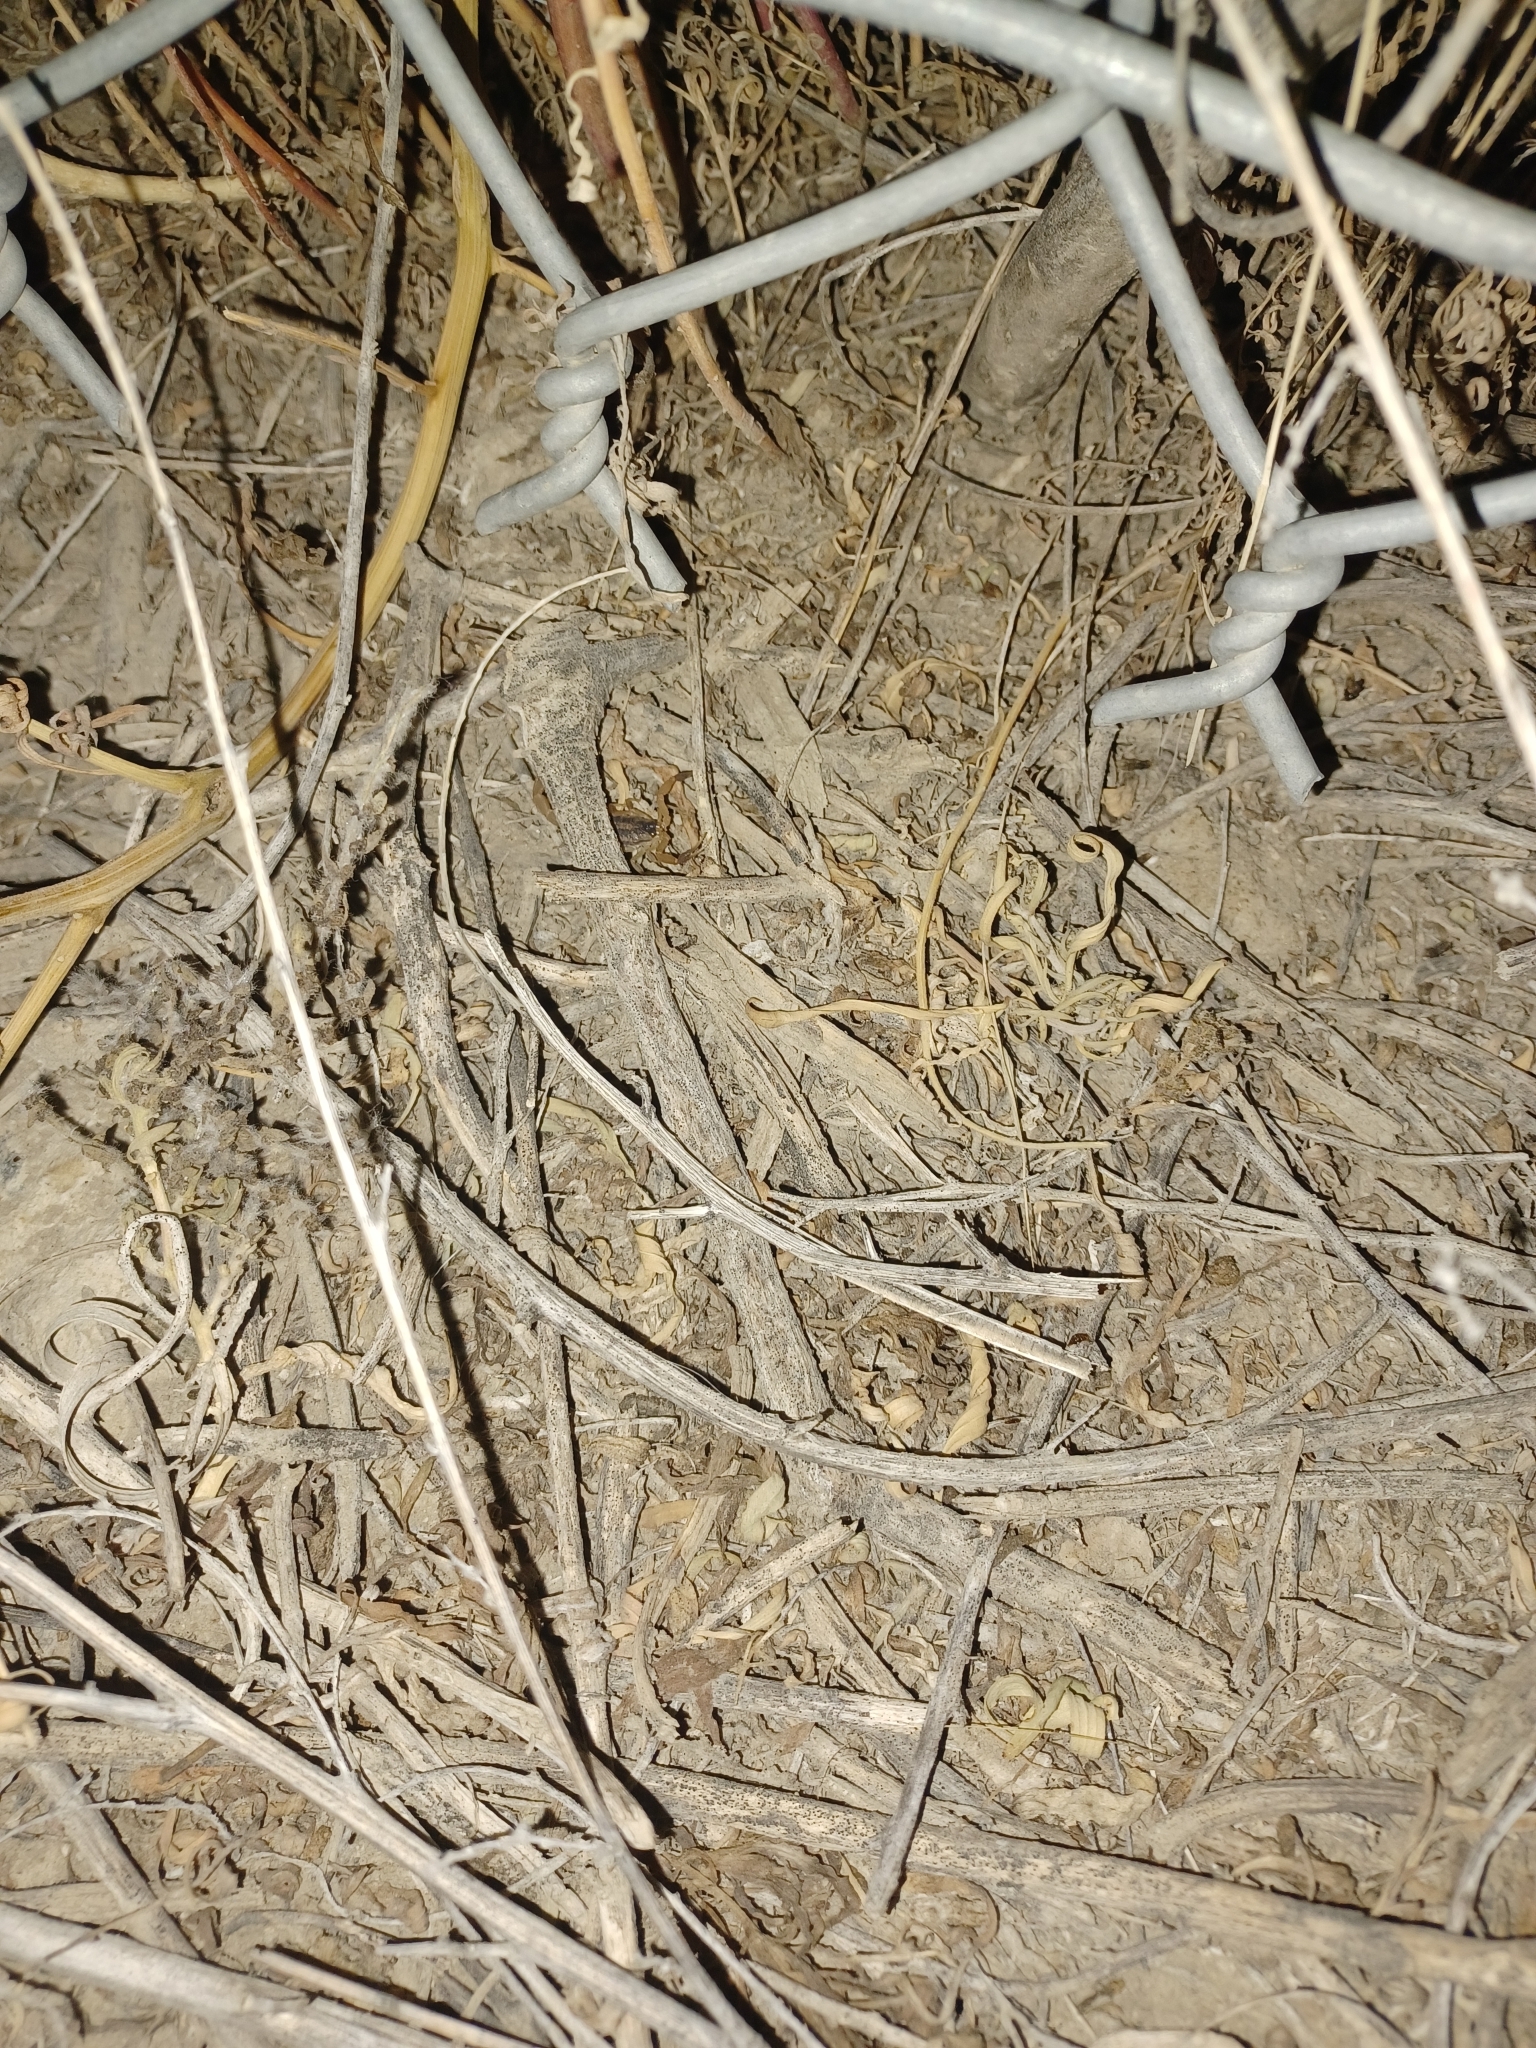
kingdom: Animalia
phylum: Arthropoda
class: Arachnida
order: Scorpiones
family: Buthidae
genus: Centruroides
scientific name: Centruroides vittatus
